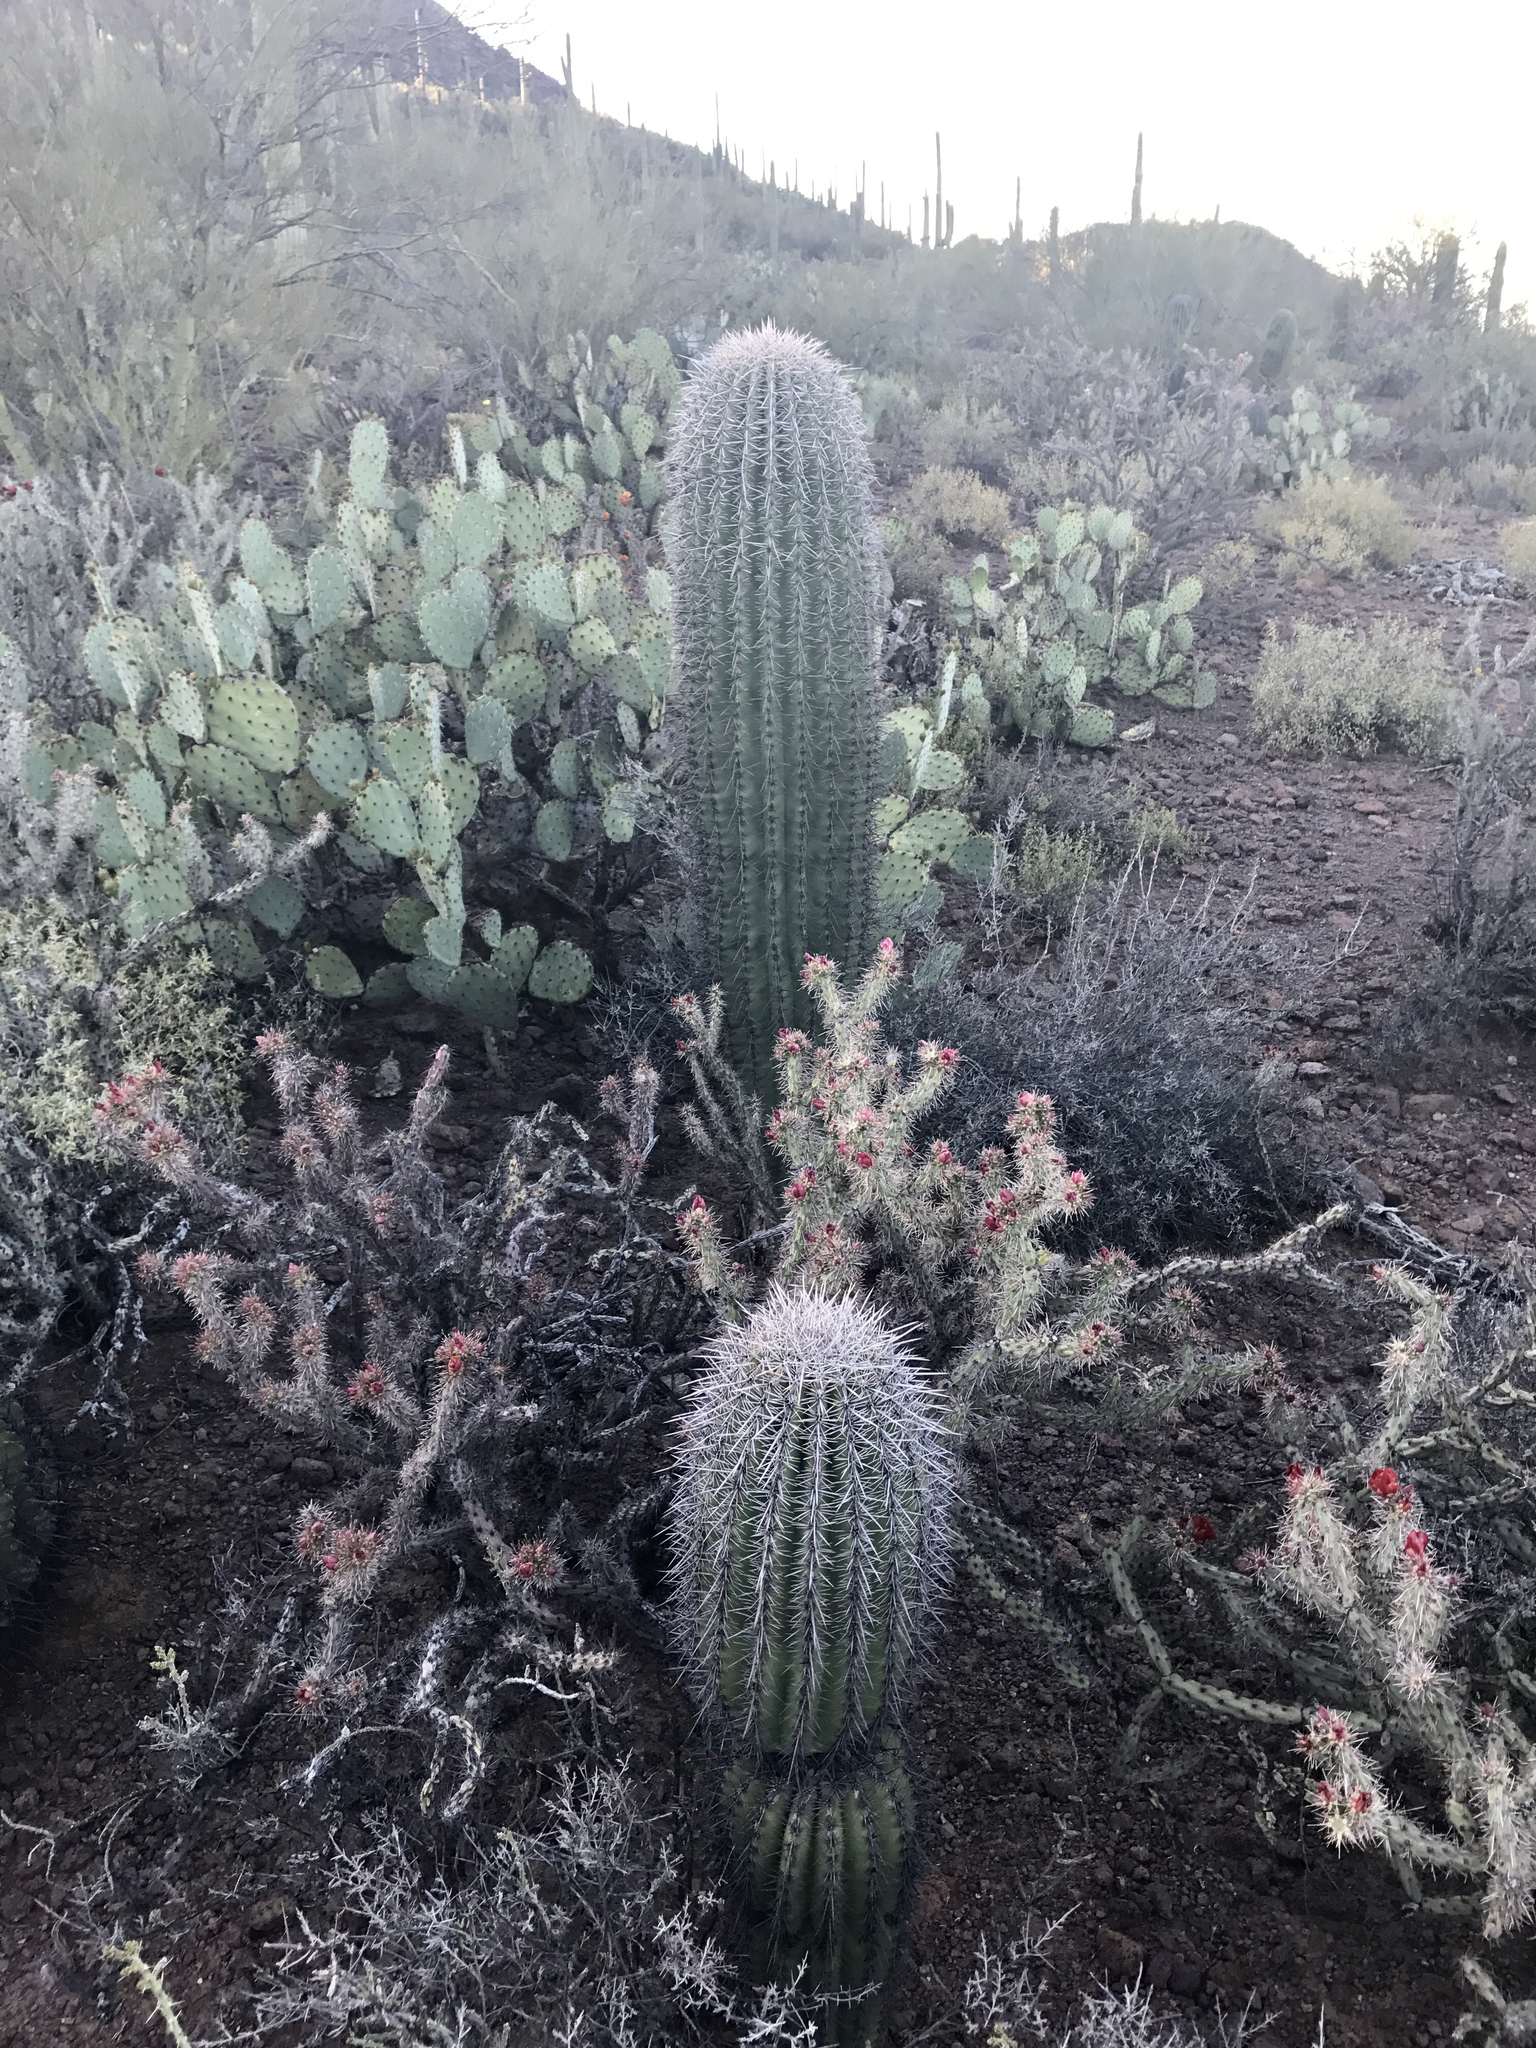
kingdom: Plantae
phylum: Tracheophyta
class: Magnoliopsida
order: Caryophyllales
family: Cactaceae
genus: Carnegiea
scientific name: Carnegiea gigantea
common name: Saguaro
